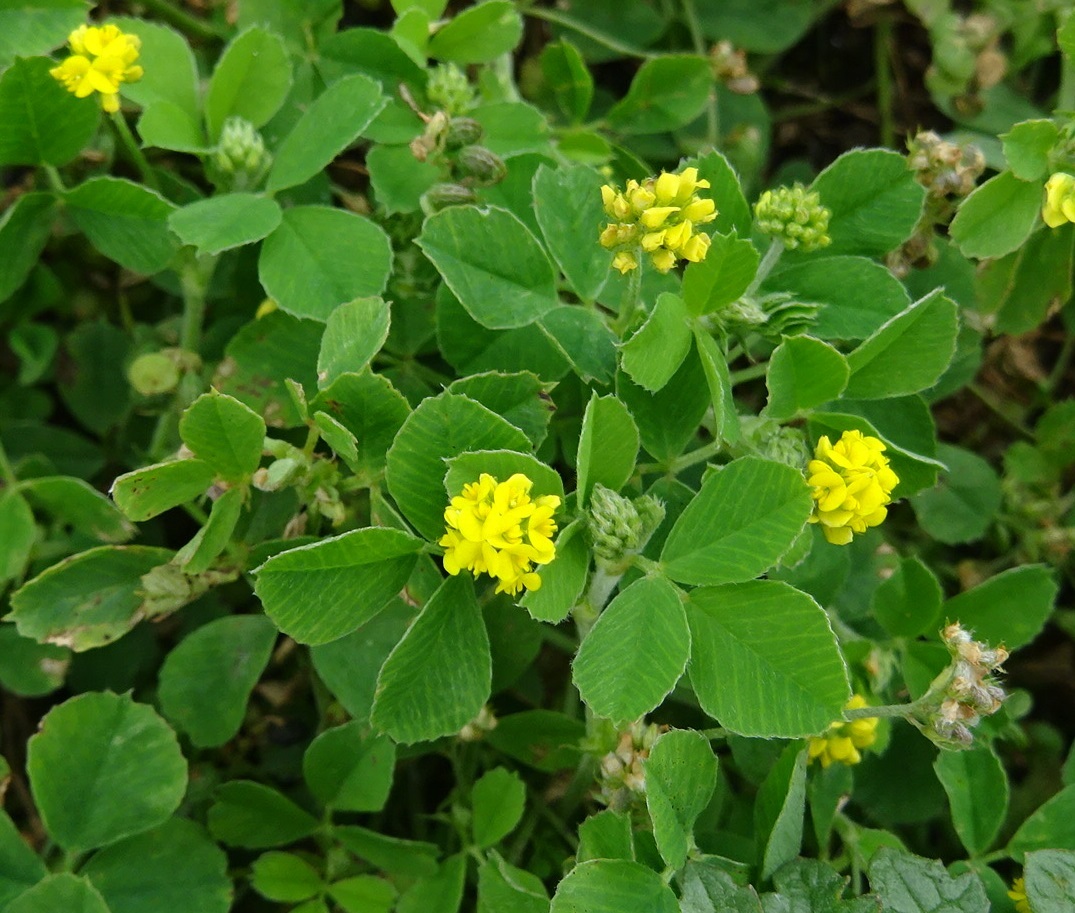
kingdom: Plantae
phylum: Tracheophyta
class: Magnoliopsida
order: Fabales
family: Fabaceae
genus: Medicago
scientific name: Medicago lupulina
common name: Black medick
